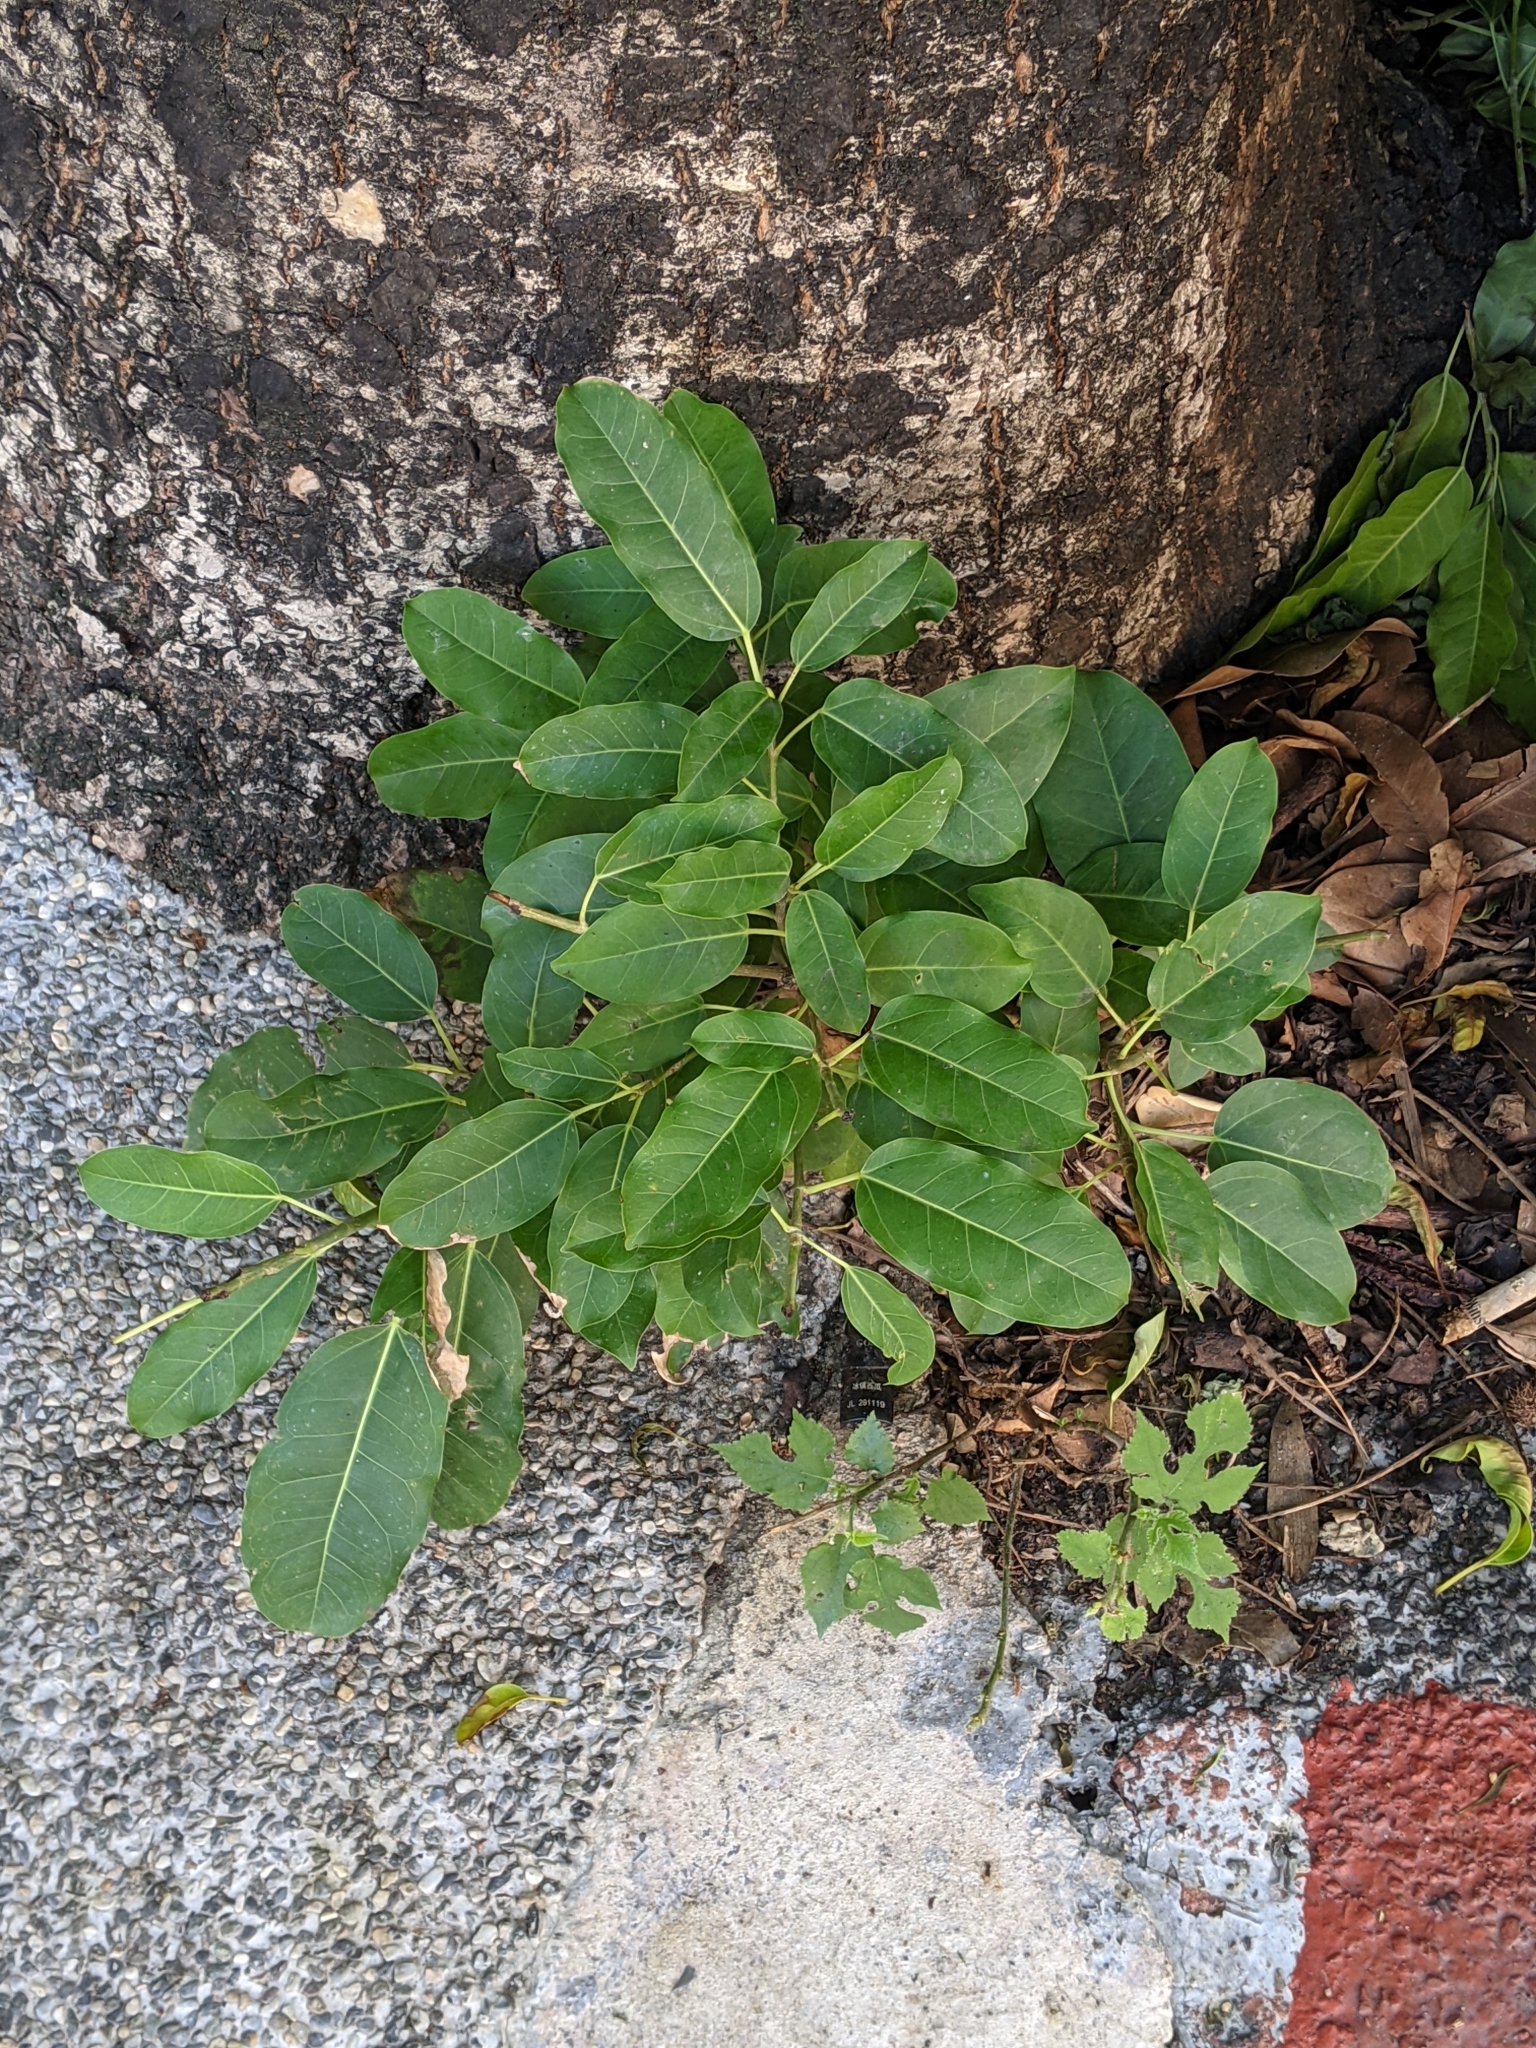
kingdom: Plantae
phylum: Tracheophyta
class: Magnoliopsida
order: Rosales
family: Moraceae
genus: Ficus
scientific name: Ficus subpisocarpa
